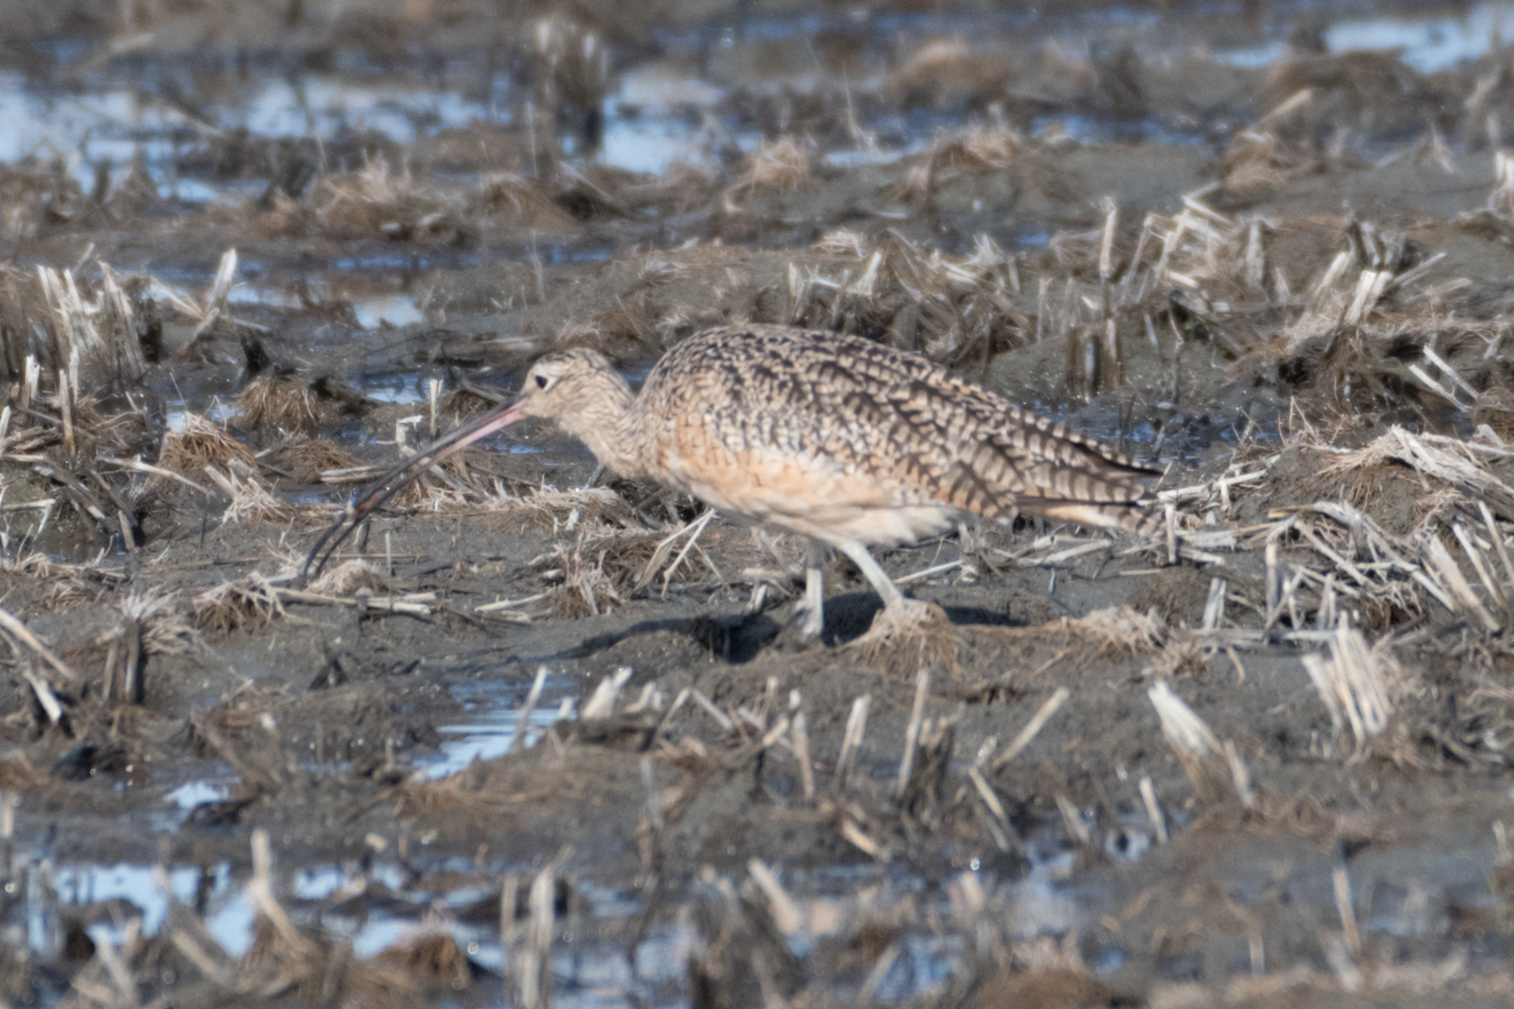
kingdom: Animalia
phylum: Chordata
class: Aves
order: Charadriiformes
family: Scolopacidae
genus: Numenius
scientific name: Numenius americanus
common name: Long-billed curlew
